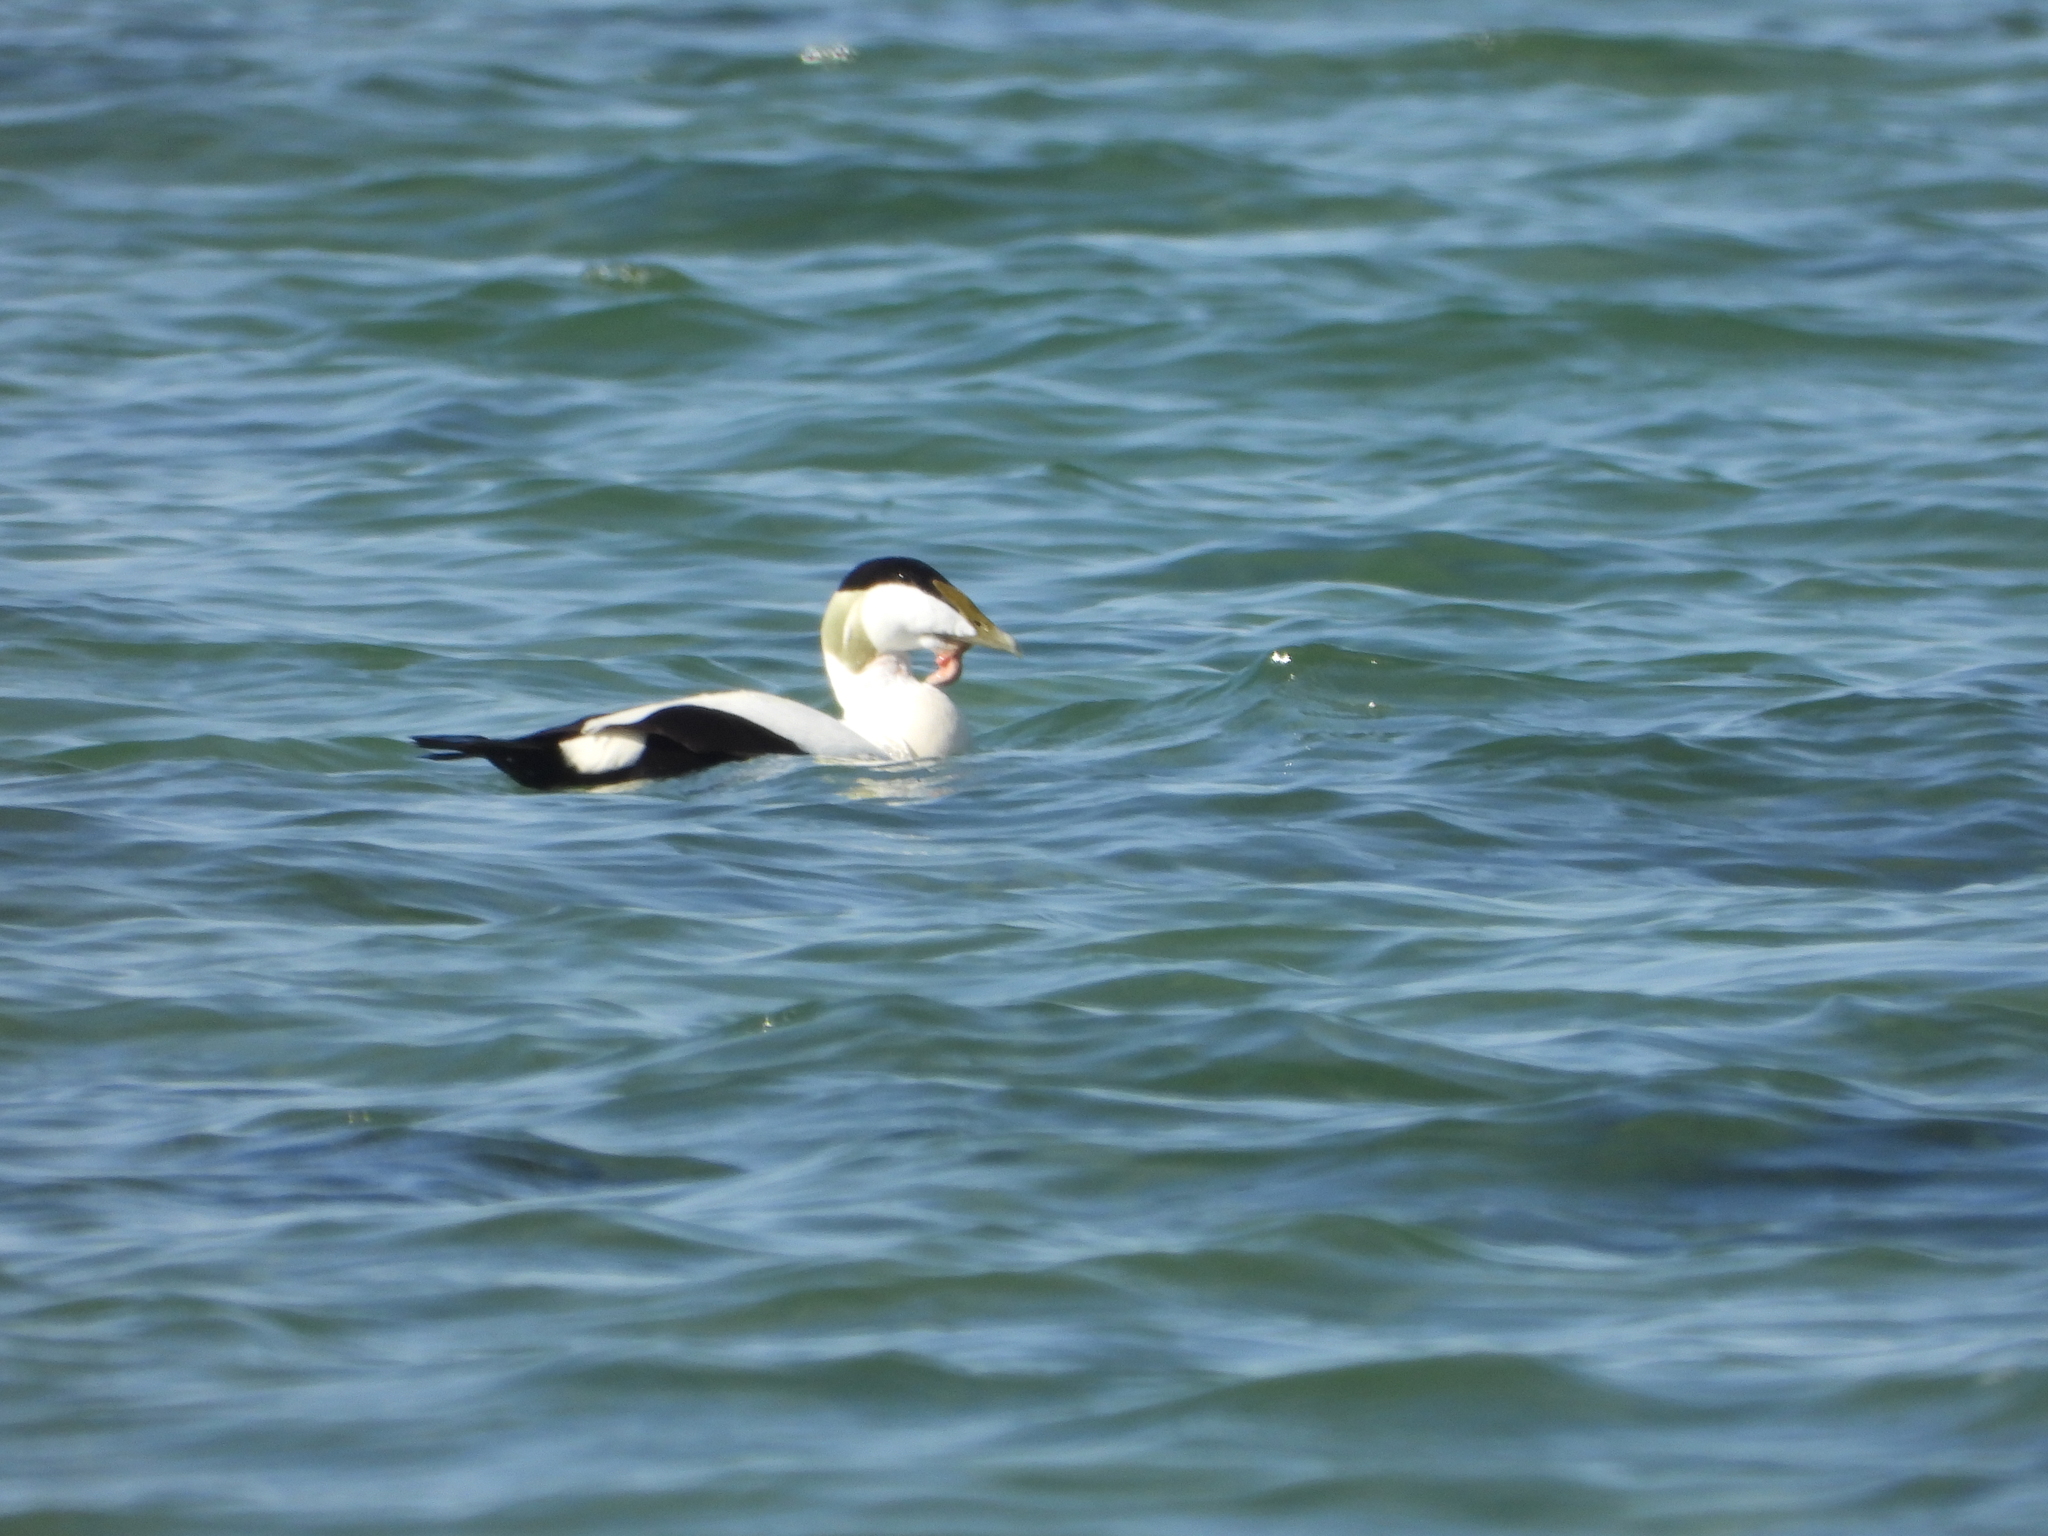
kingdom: Animalia
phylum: Chordata
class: Aves
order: Anseriformes
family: Anatidae
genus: Somateria
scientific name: Somateria mollissima
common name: Common eider
